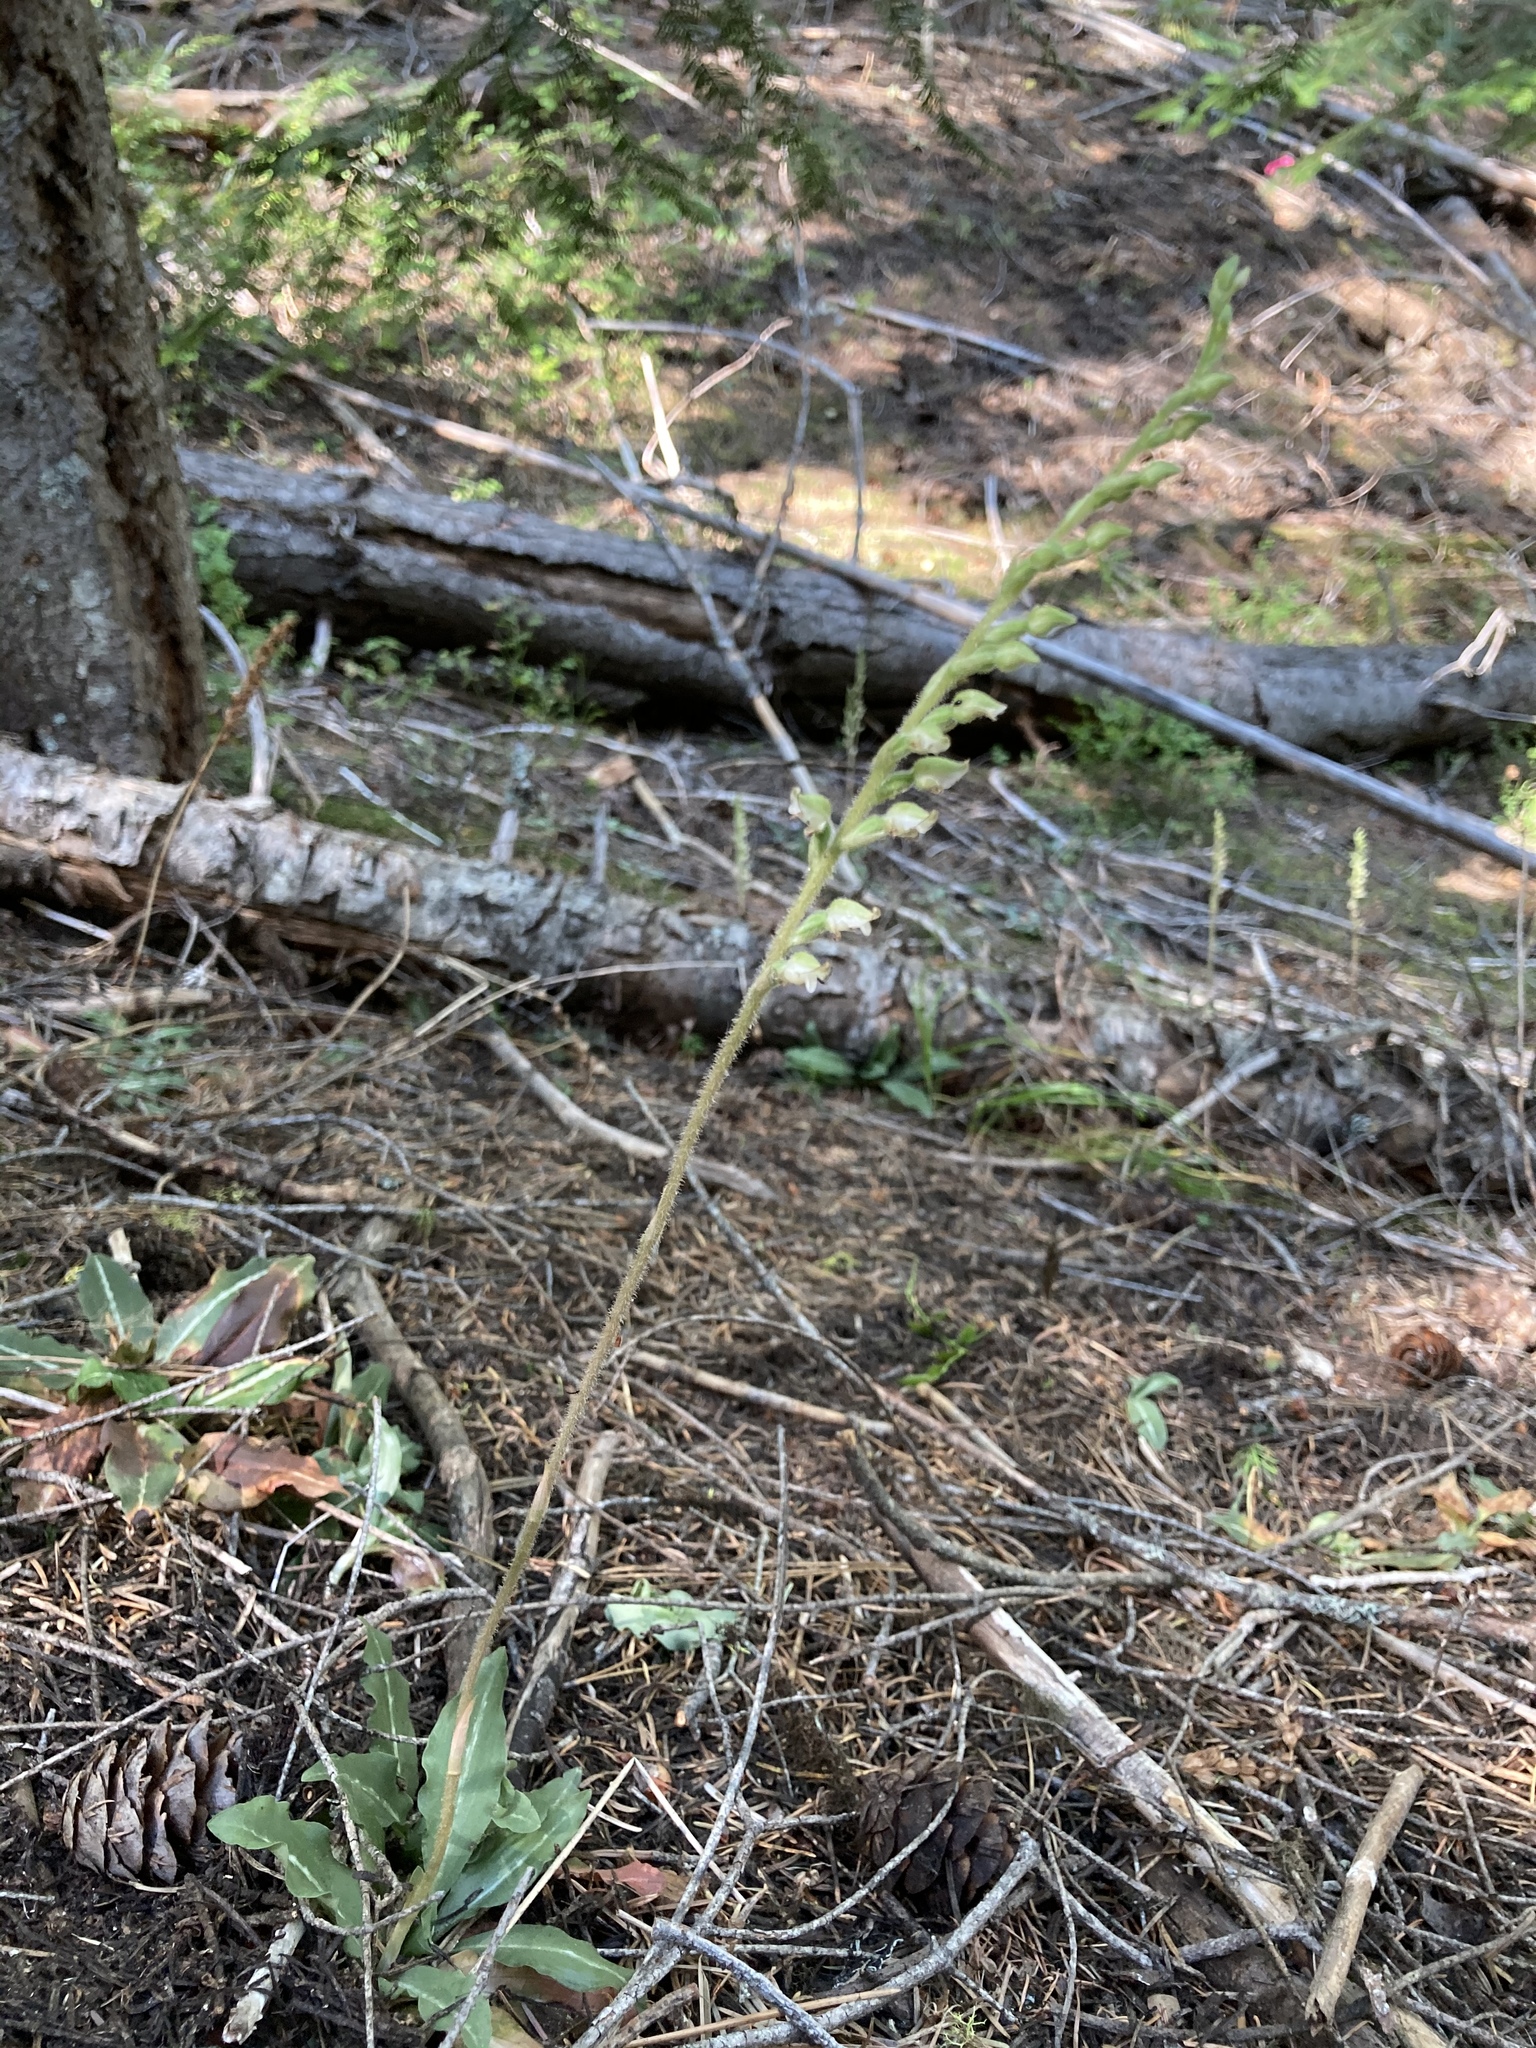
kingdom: Plantae
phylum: Tracheophyta
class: Liliopsida
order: Asparagales
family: Orchidaceae
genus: Goodyera
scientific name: Goodyera oblongifolia
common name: Giant rattlesnake-plantain
